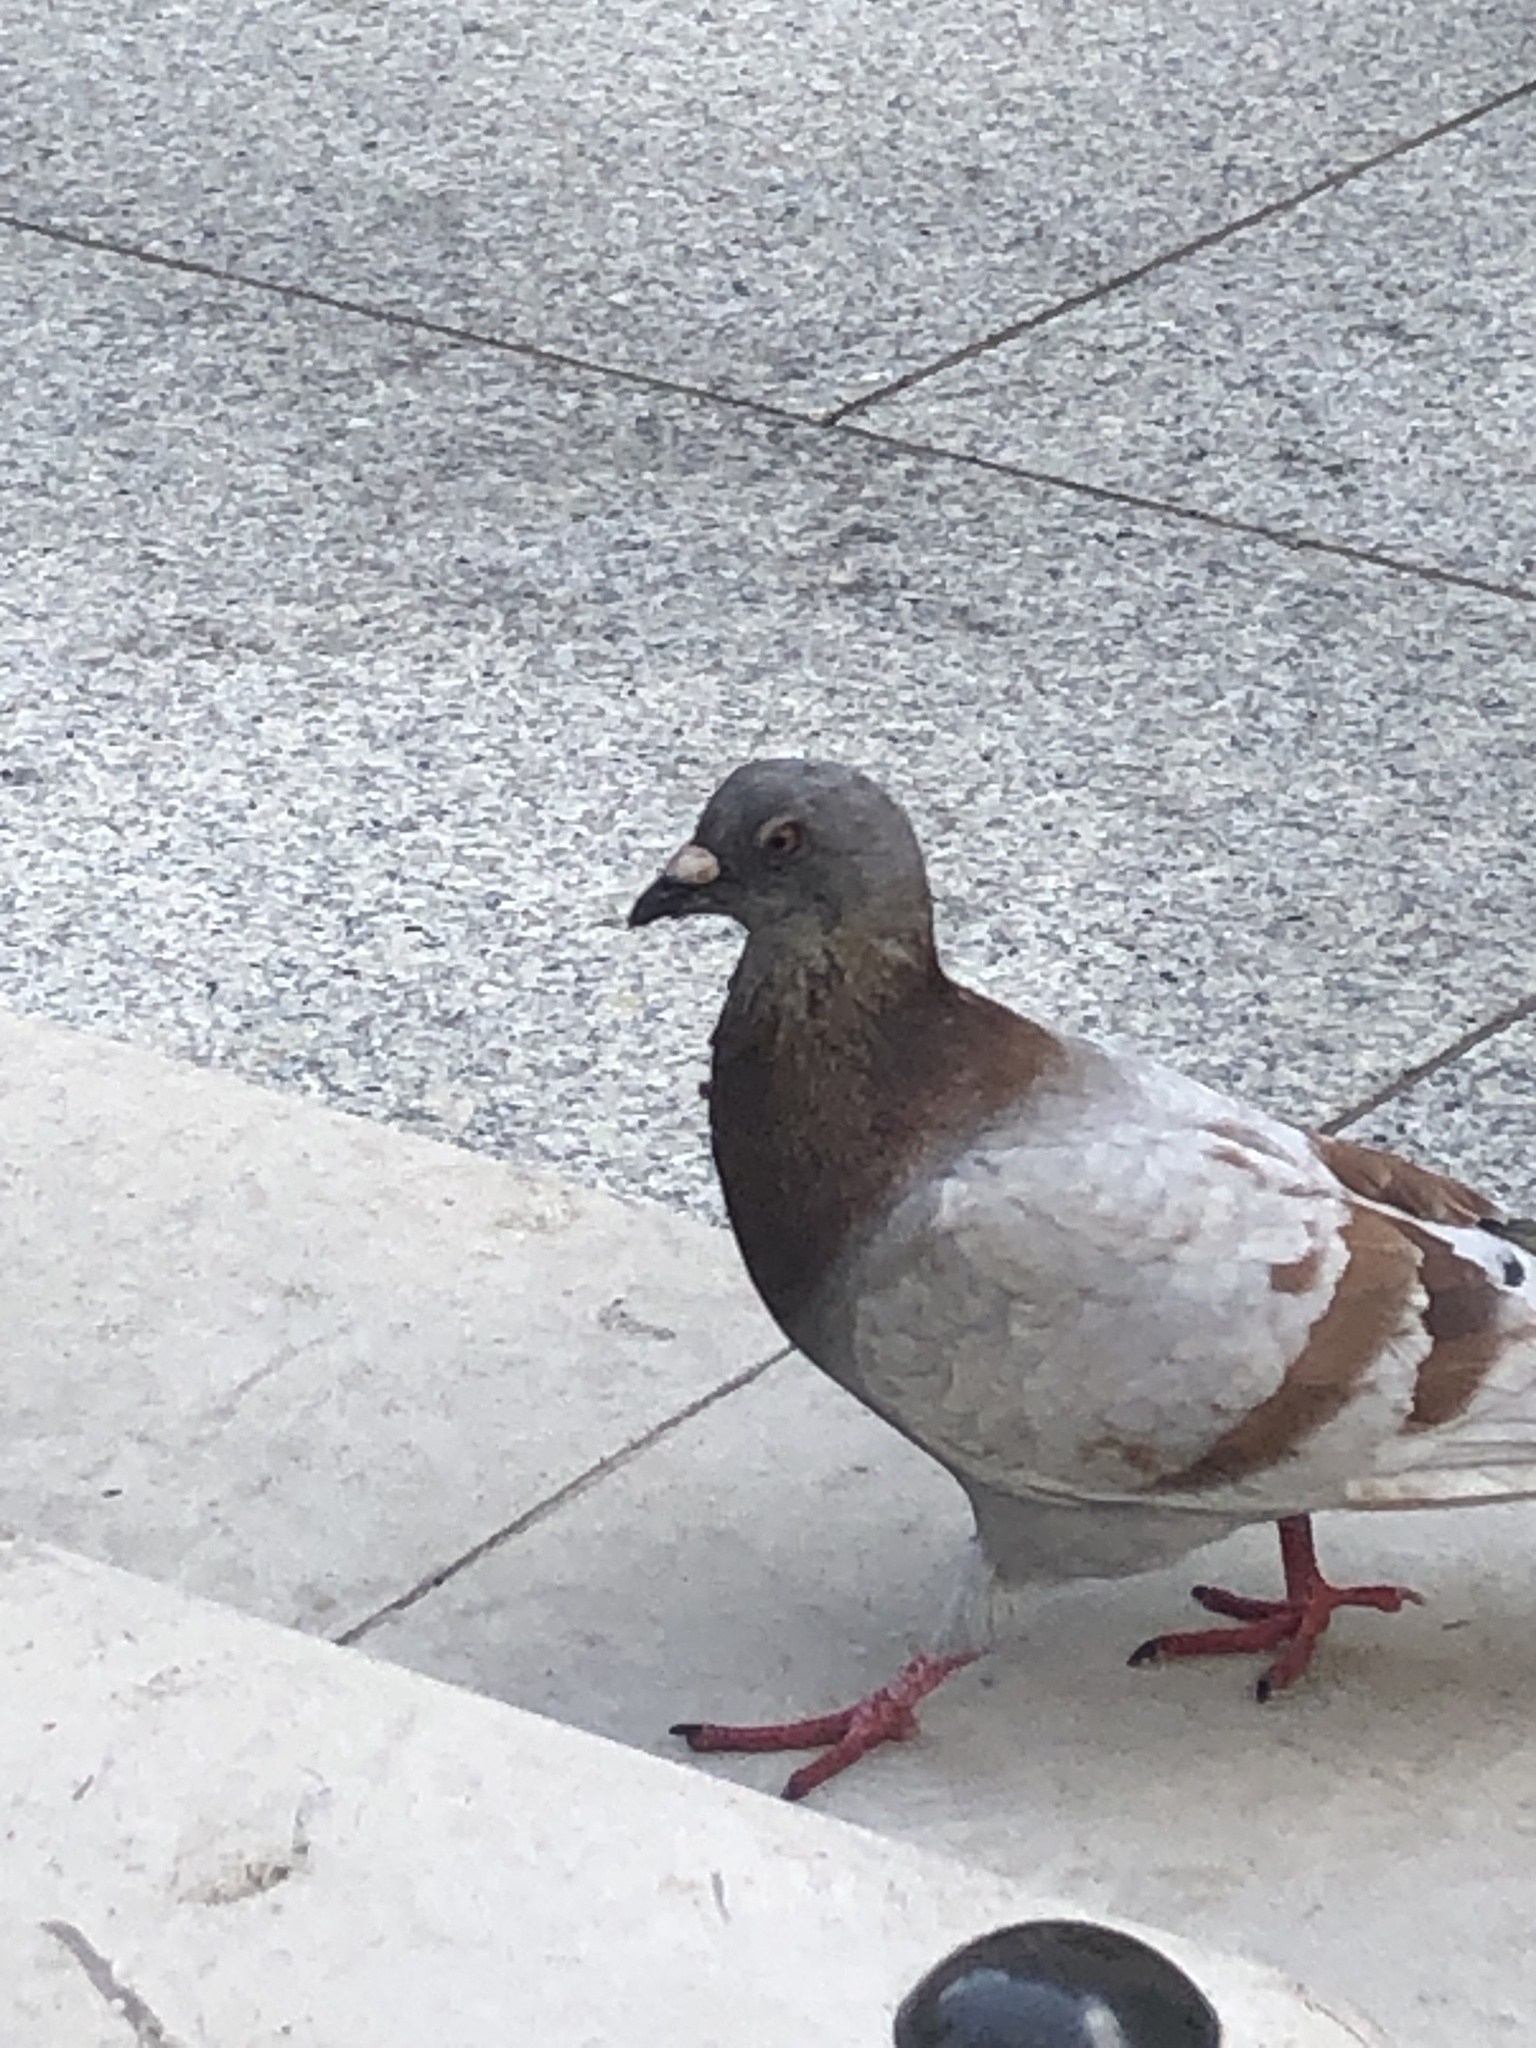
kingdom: Animalia
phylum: Chordata
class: Aves
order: Columbiformes
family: Columbidae
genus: Columba
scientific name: Columba livia
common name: Rock pigeon
